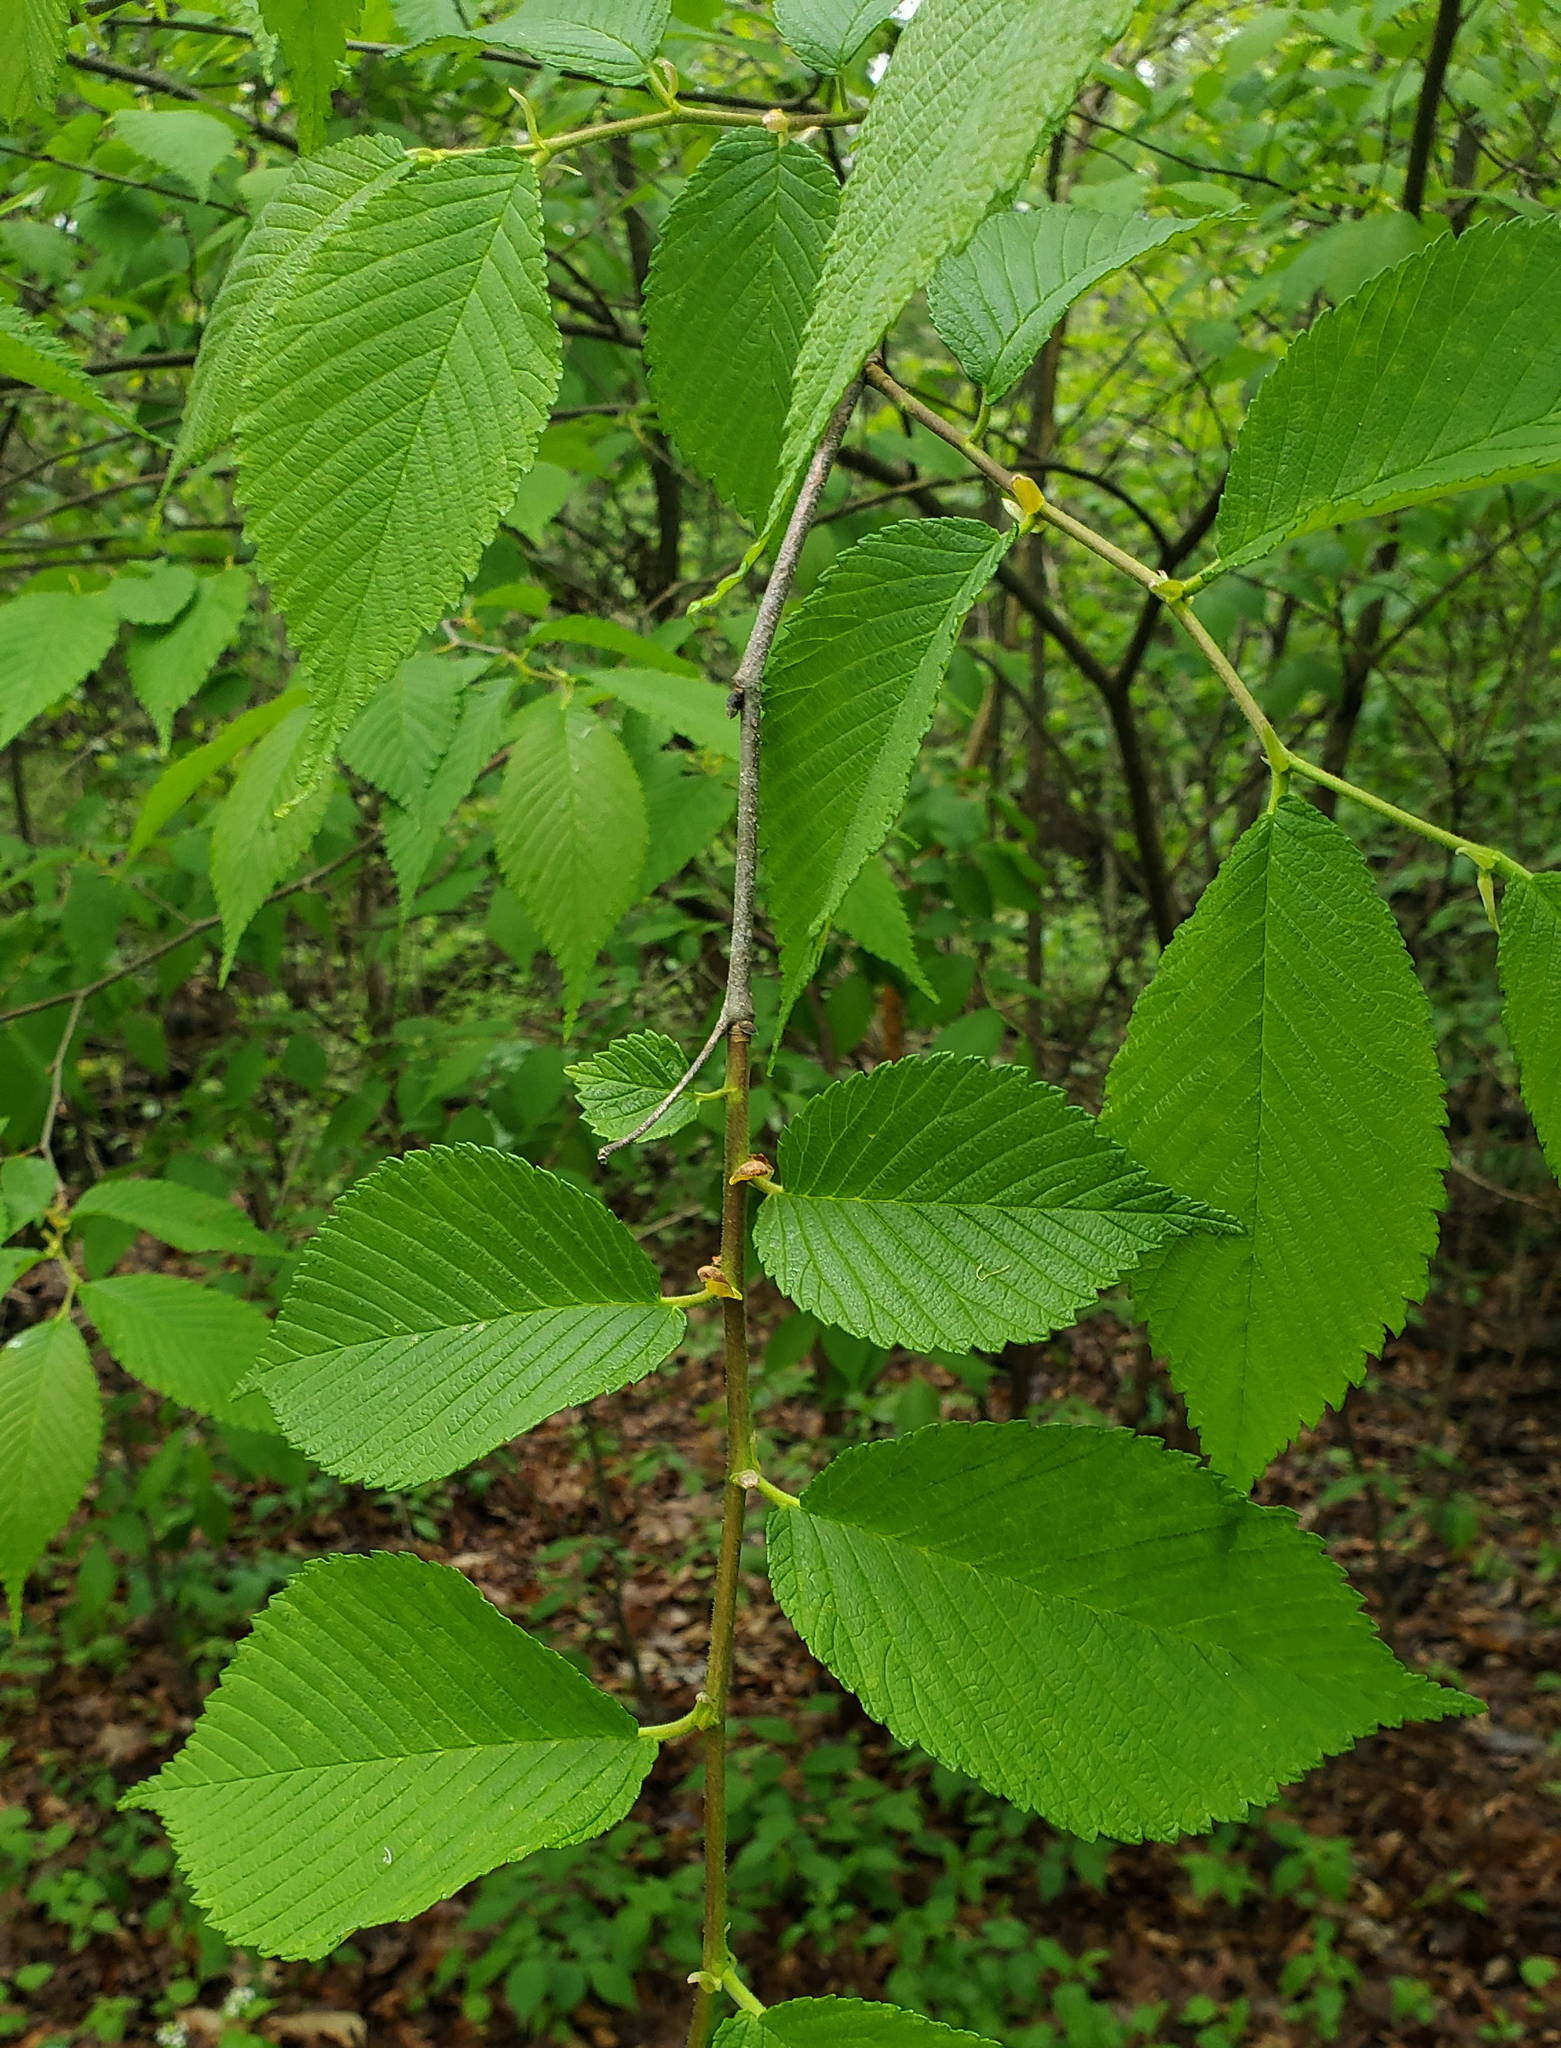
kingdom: Plantae
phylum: Tracheophyta
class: Magnoliopsida
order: Rosales
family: Ulmaceae
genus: Ulmus
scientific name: Ulmus rubra
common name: Slippery elm
